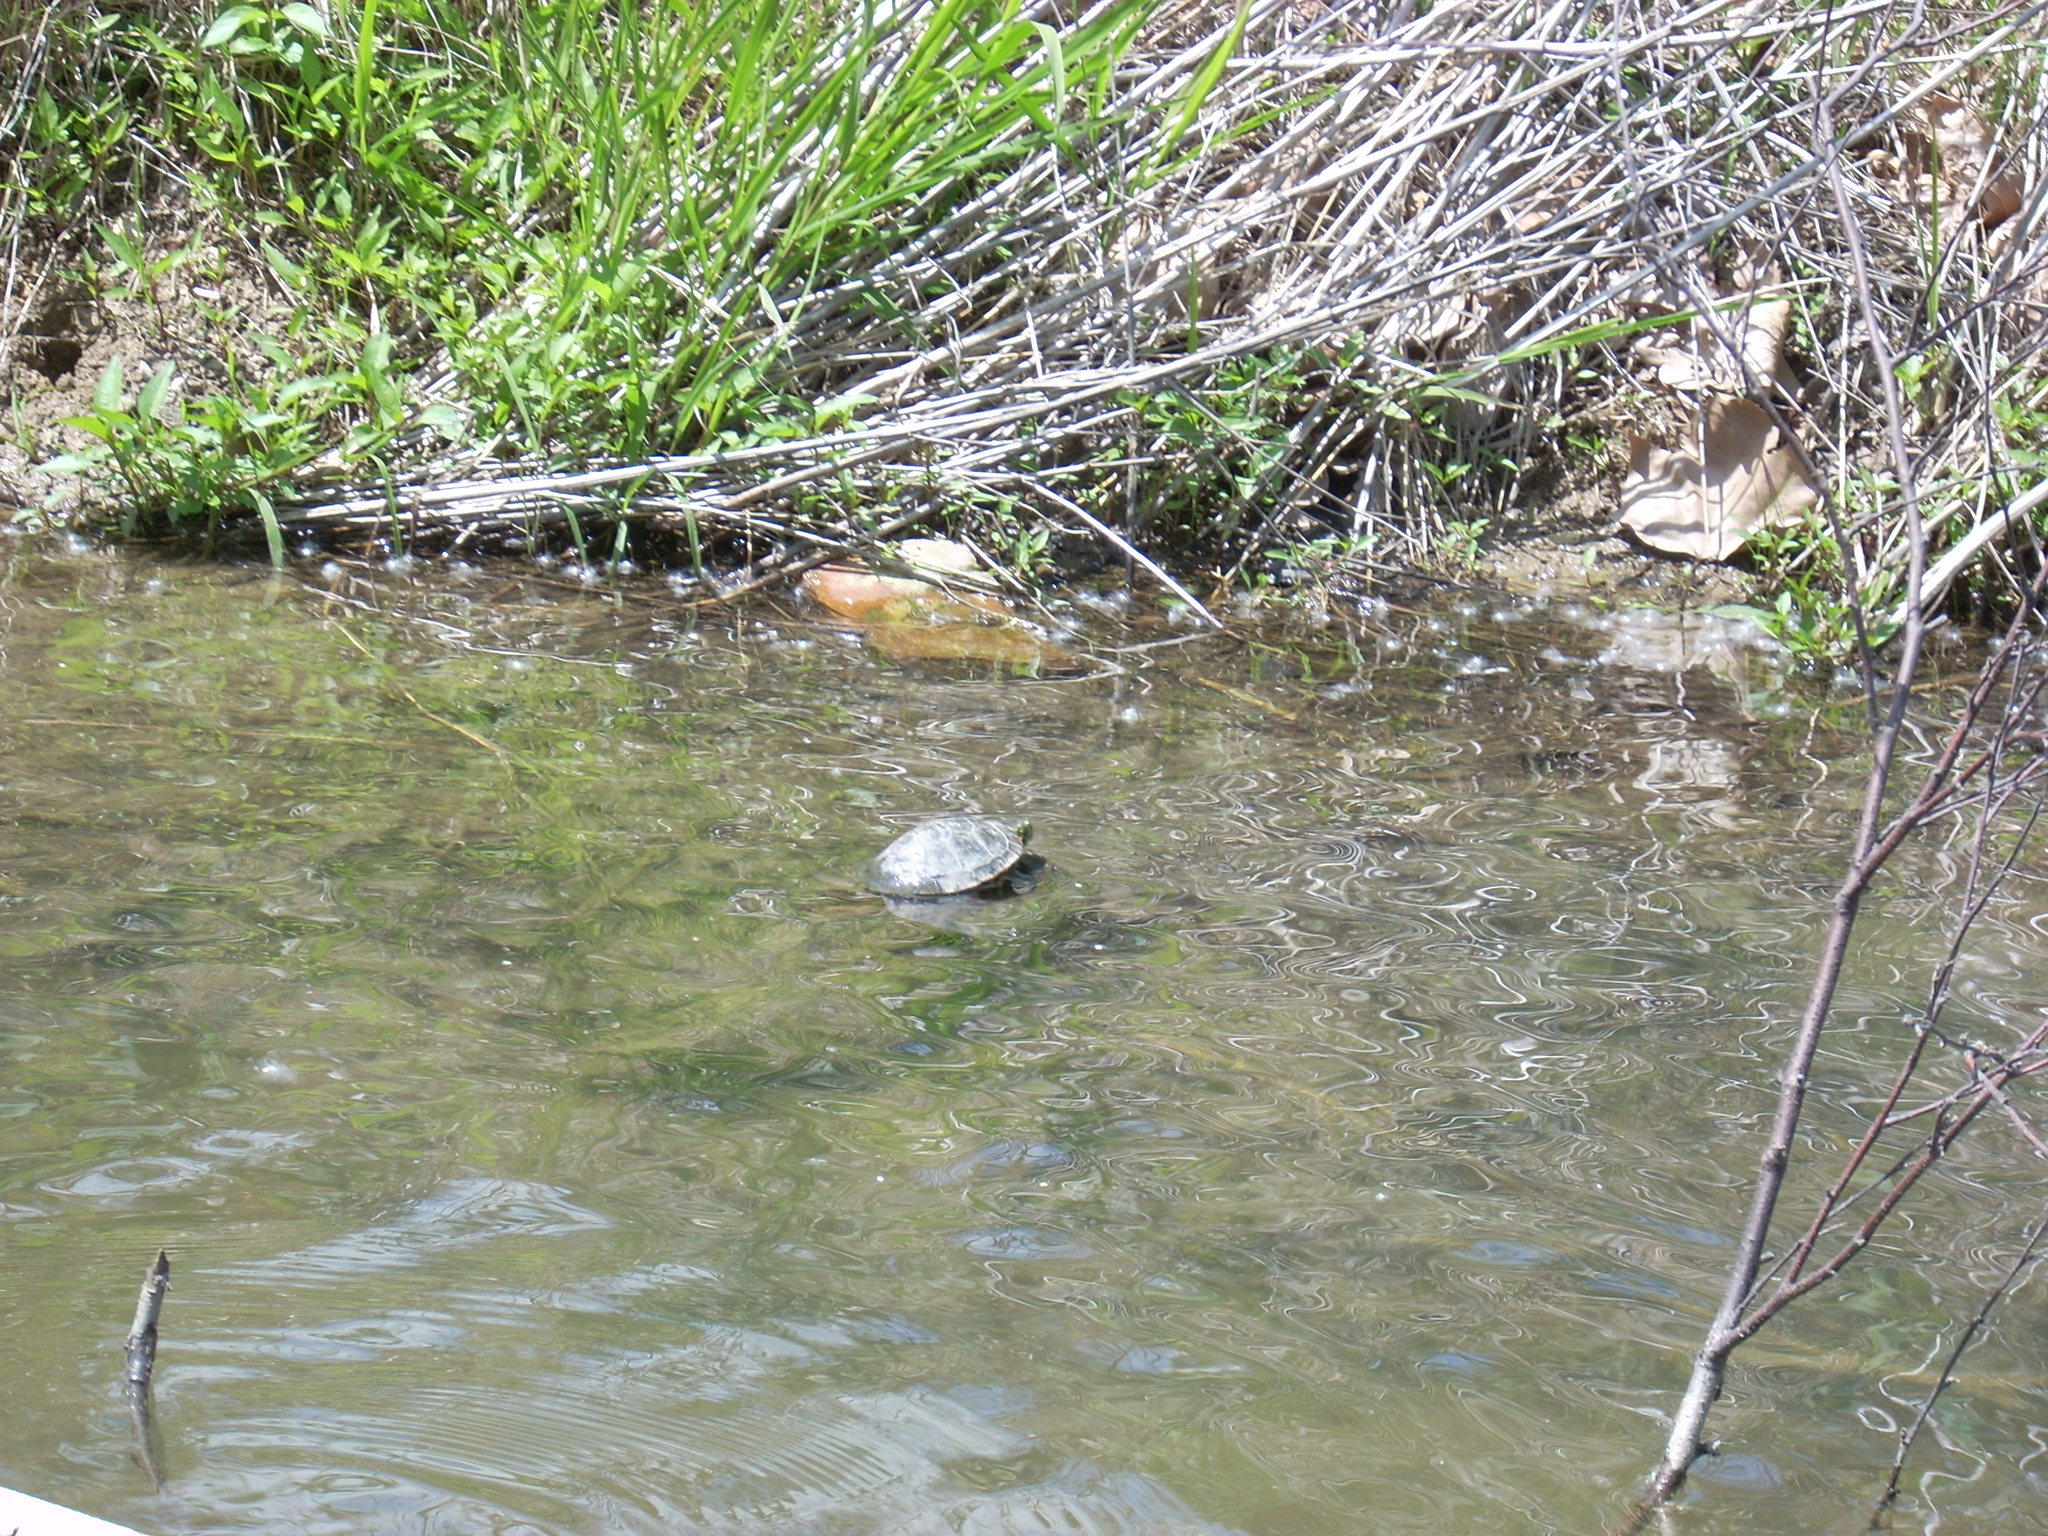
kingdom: Animalia
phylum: Chordata
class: Testudines
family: Emydidae
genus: Chrysemys
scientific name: Chrysemys picta
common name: Painted turtle
